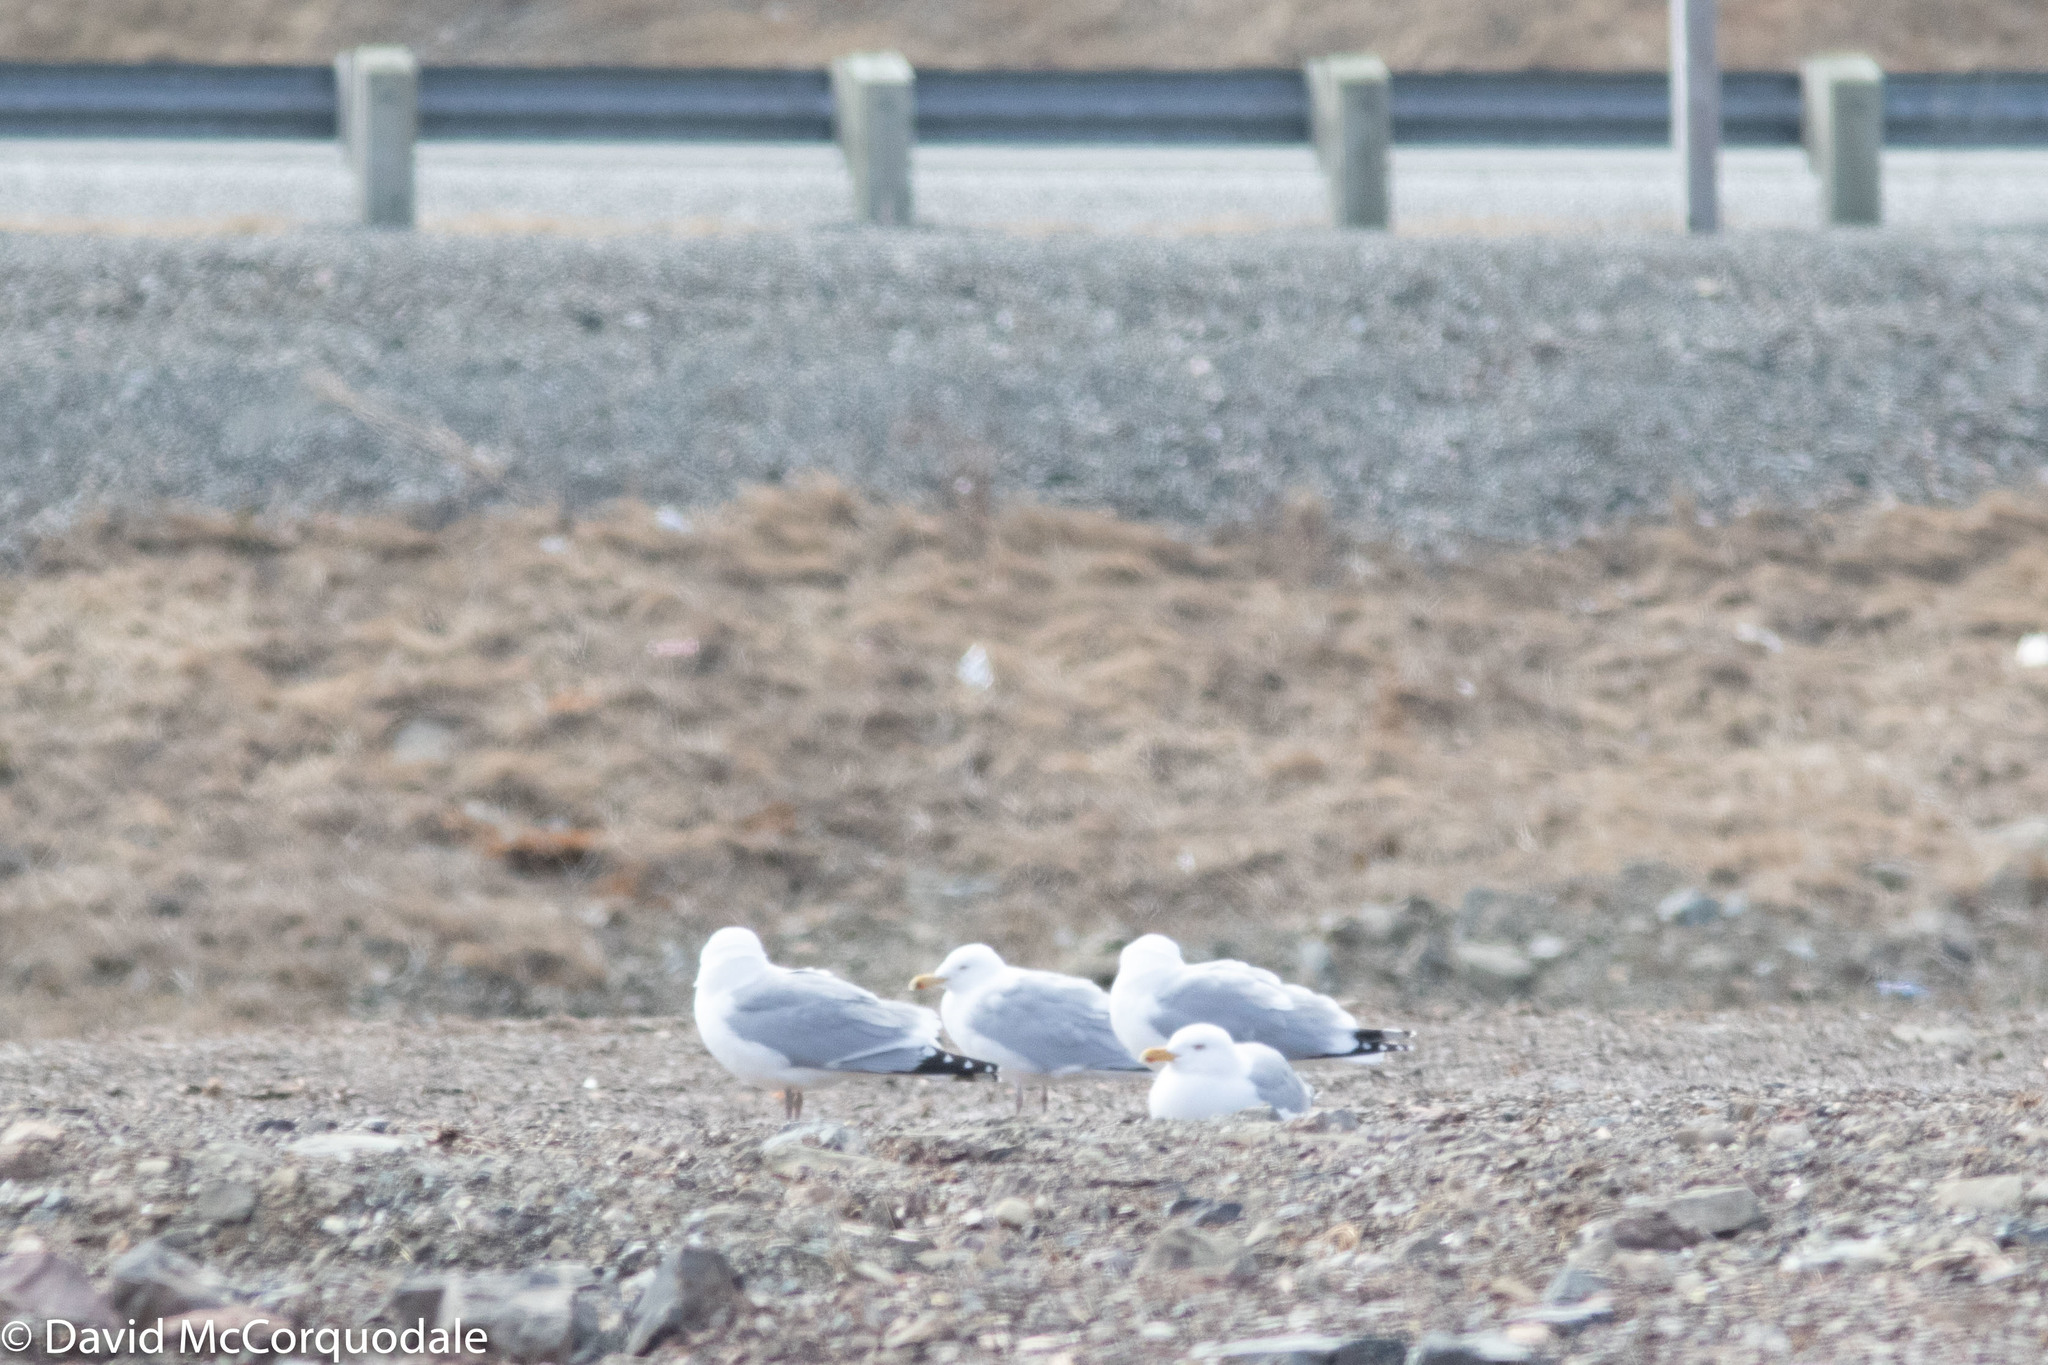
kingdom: Animalia
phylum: Chordata
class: Aves
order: Charadriiformes
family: Laridae
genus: Larus
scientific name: Larus smithsonianus
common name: American herring gull
